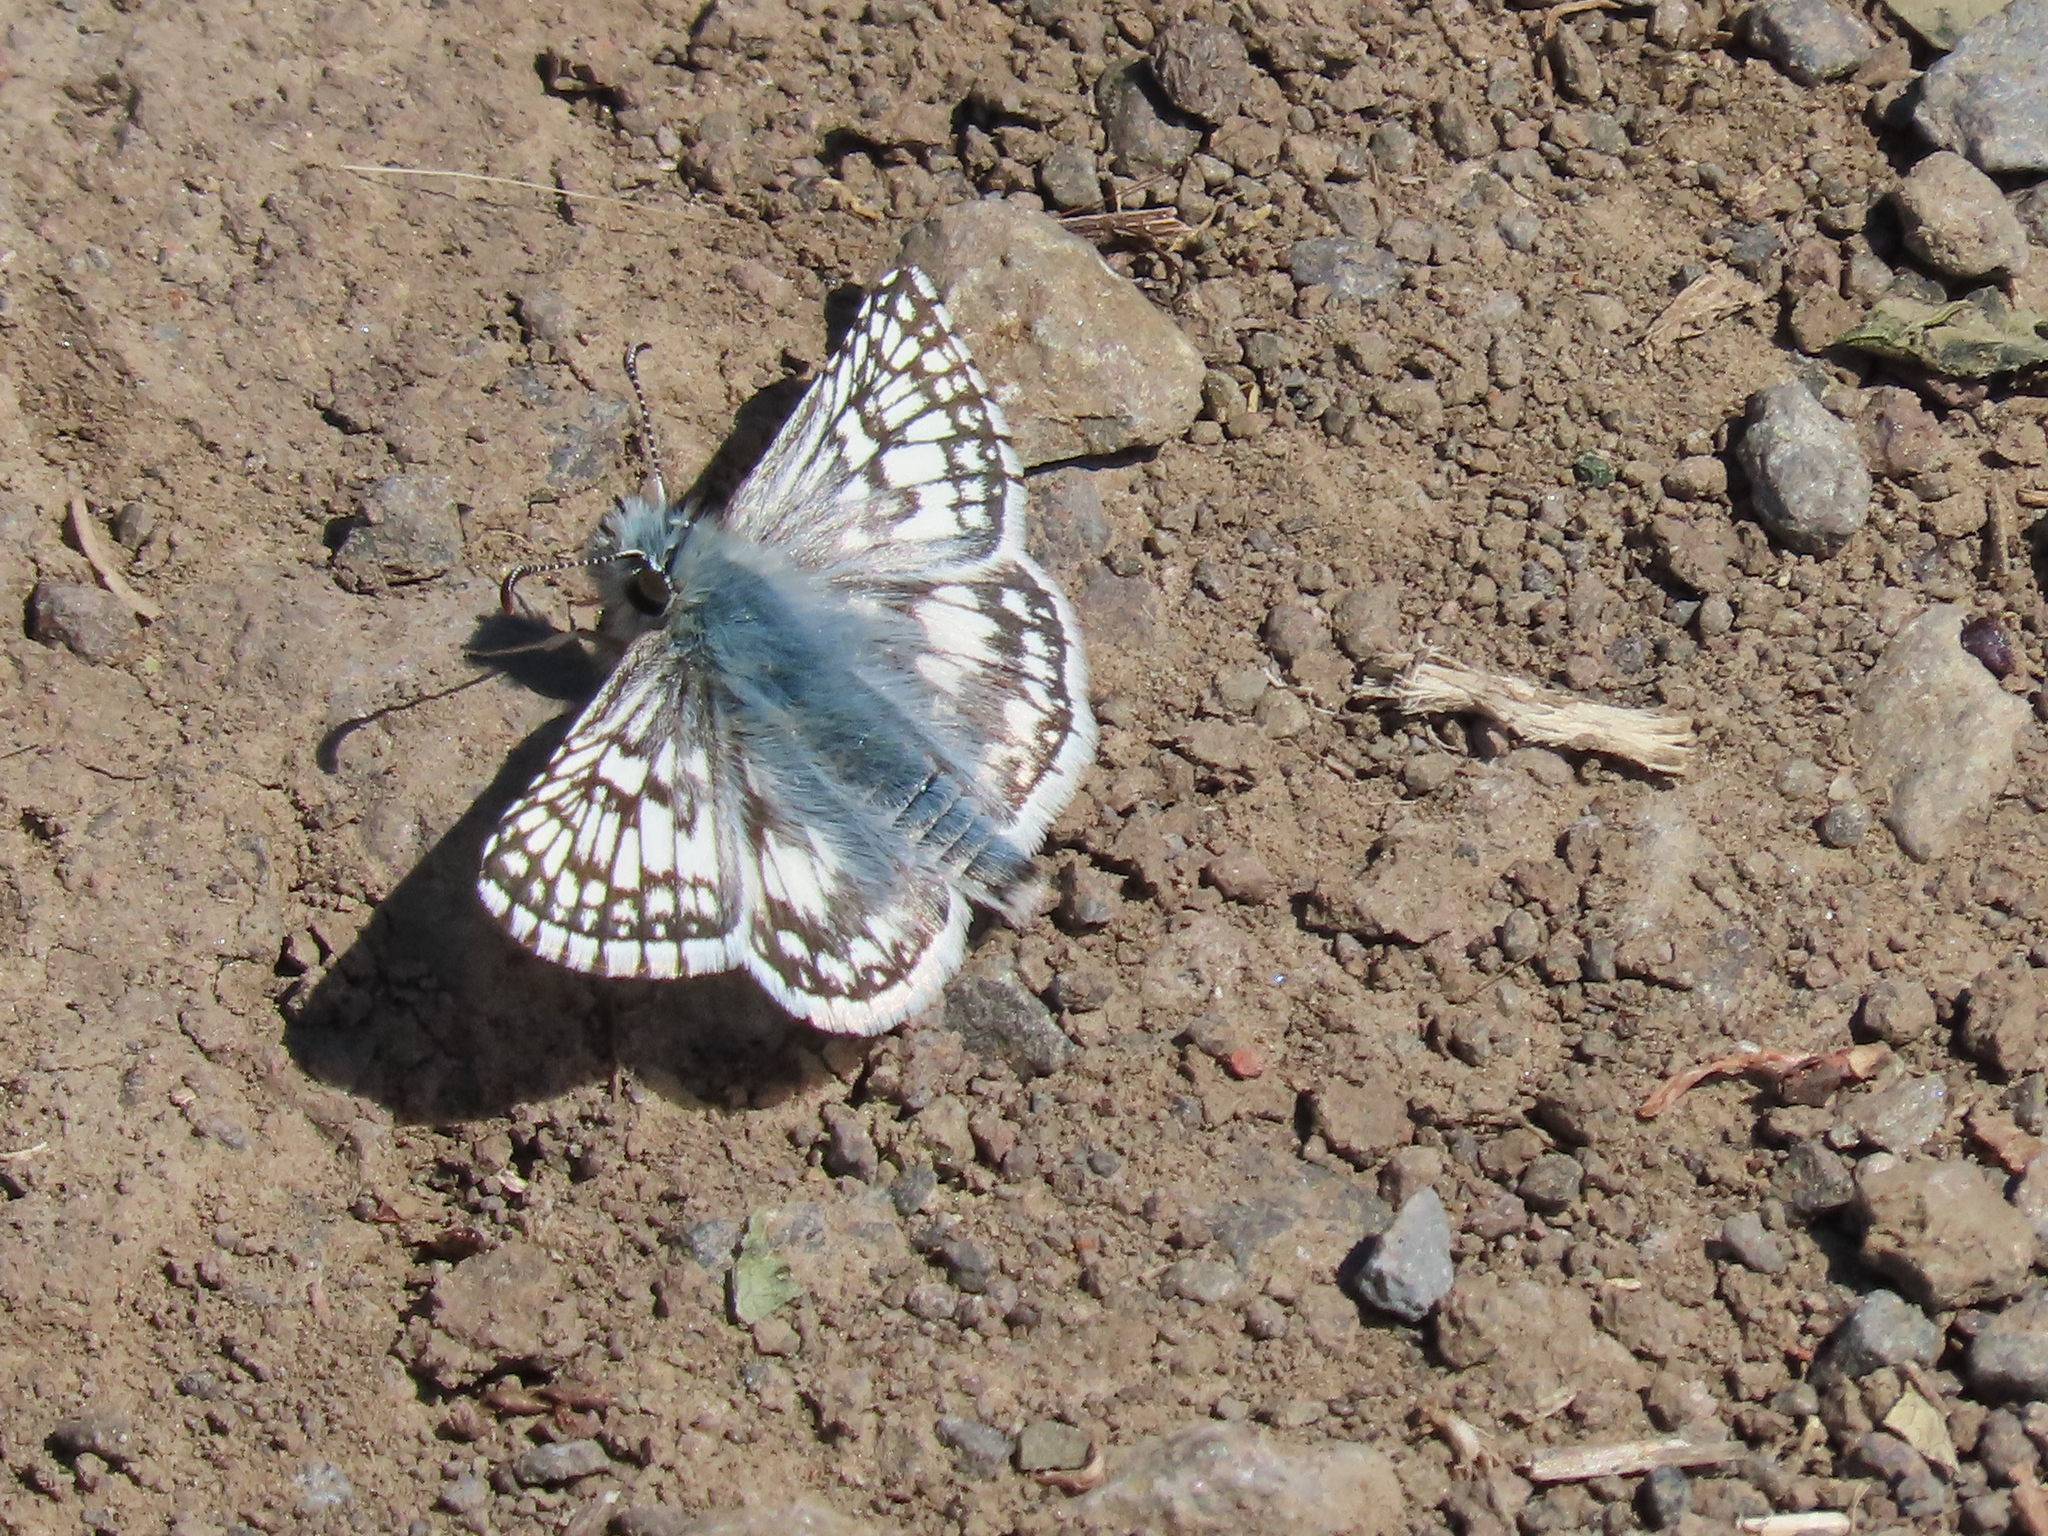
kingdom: Animalia
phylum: Arthropoda
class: Insecta
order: Lepidoptera
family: Hesperiidae
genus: Burnsius
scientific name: Burnsius communis
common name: Common checkered-skipper
